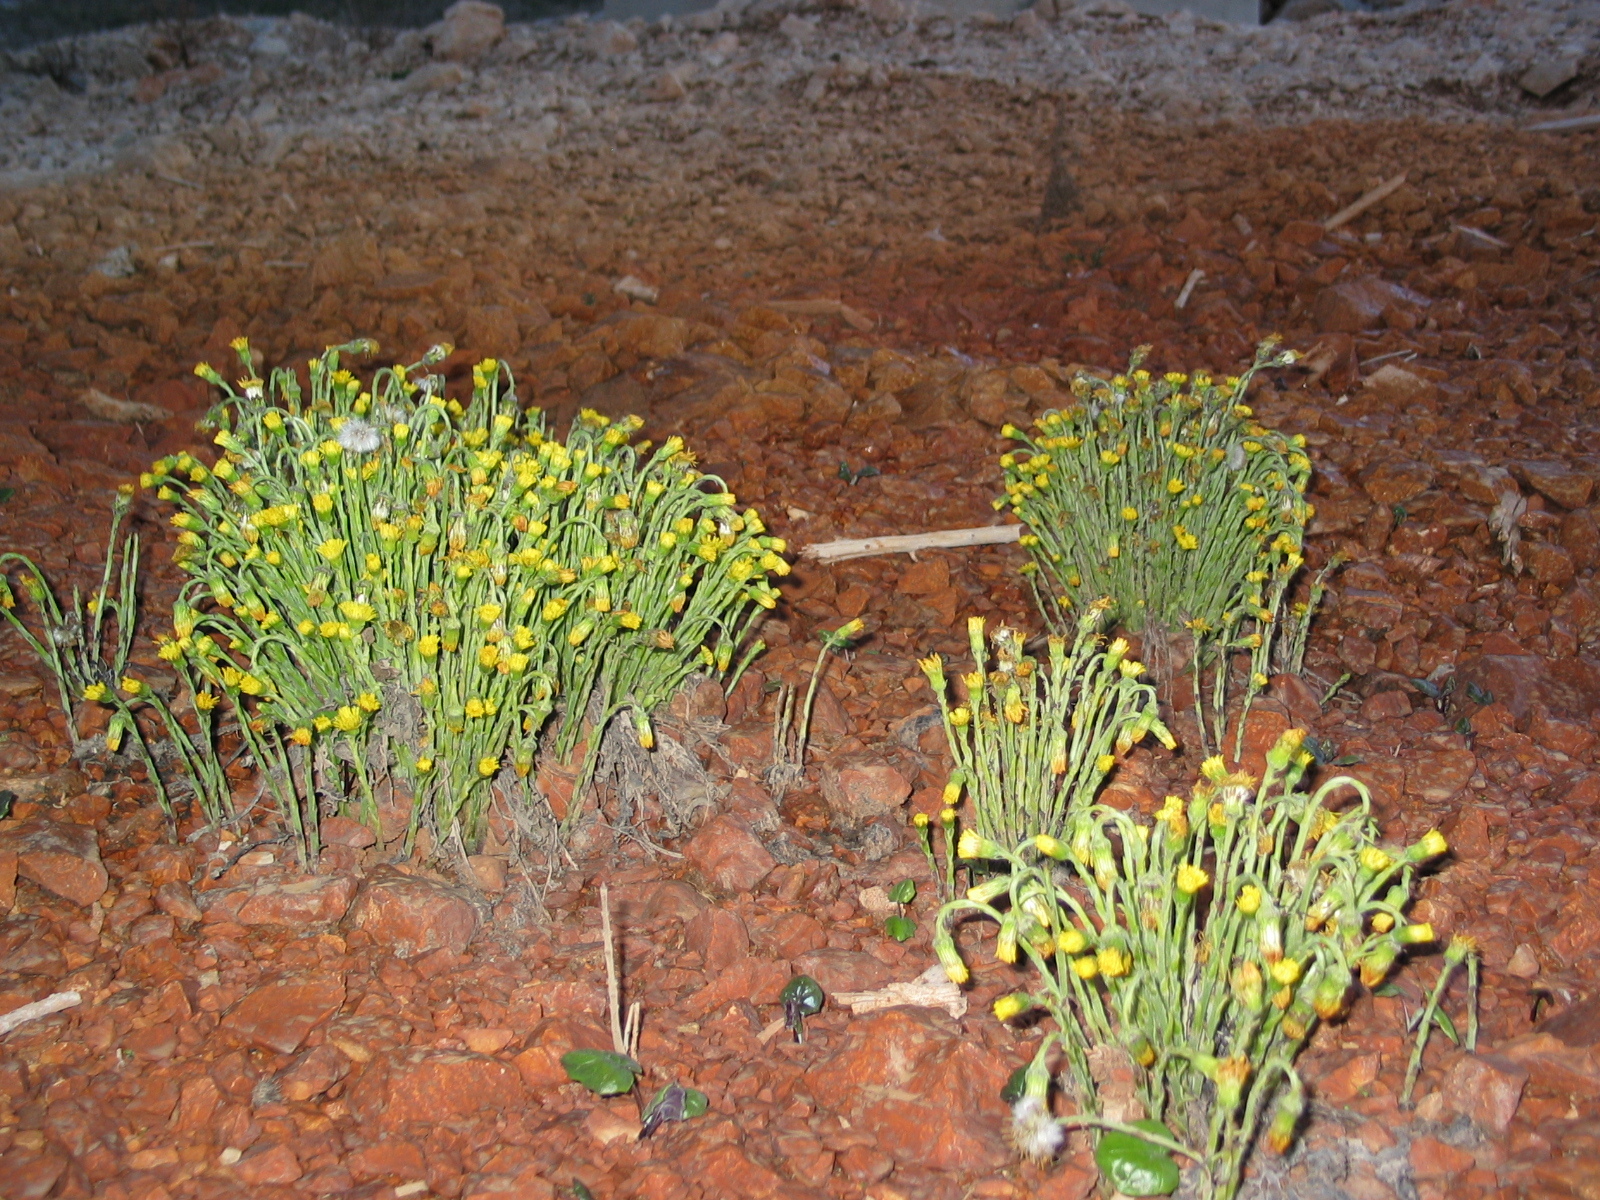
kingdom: Plantae
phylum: Tracheophyta
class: Magnoliopsida
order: Asterales
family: Asteraceae
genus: Tussilago
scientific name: Tussilago farfara
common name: Coltsfoot
